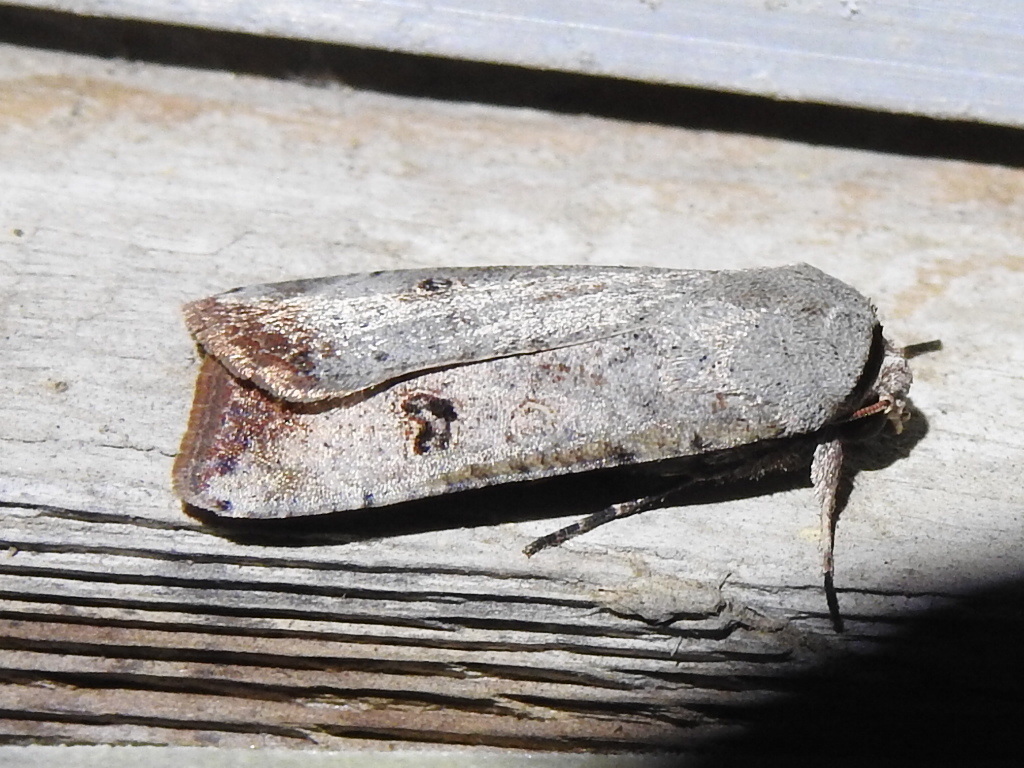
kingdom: Animalia
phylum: Arthropoda
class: Insecta
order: Lepidoptera
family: Noctuidae
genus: Anicla
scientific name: Anicla infecta
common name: Green cutworm
